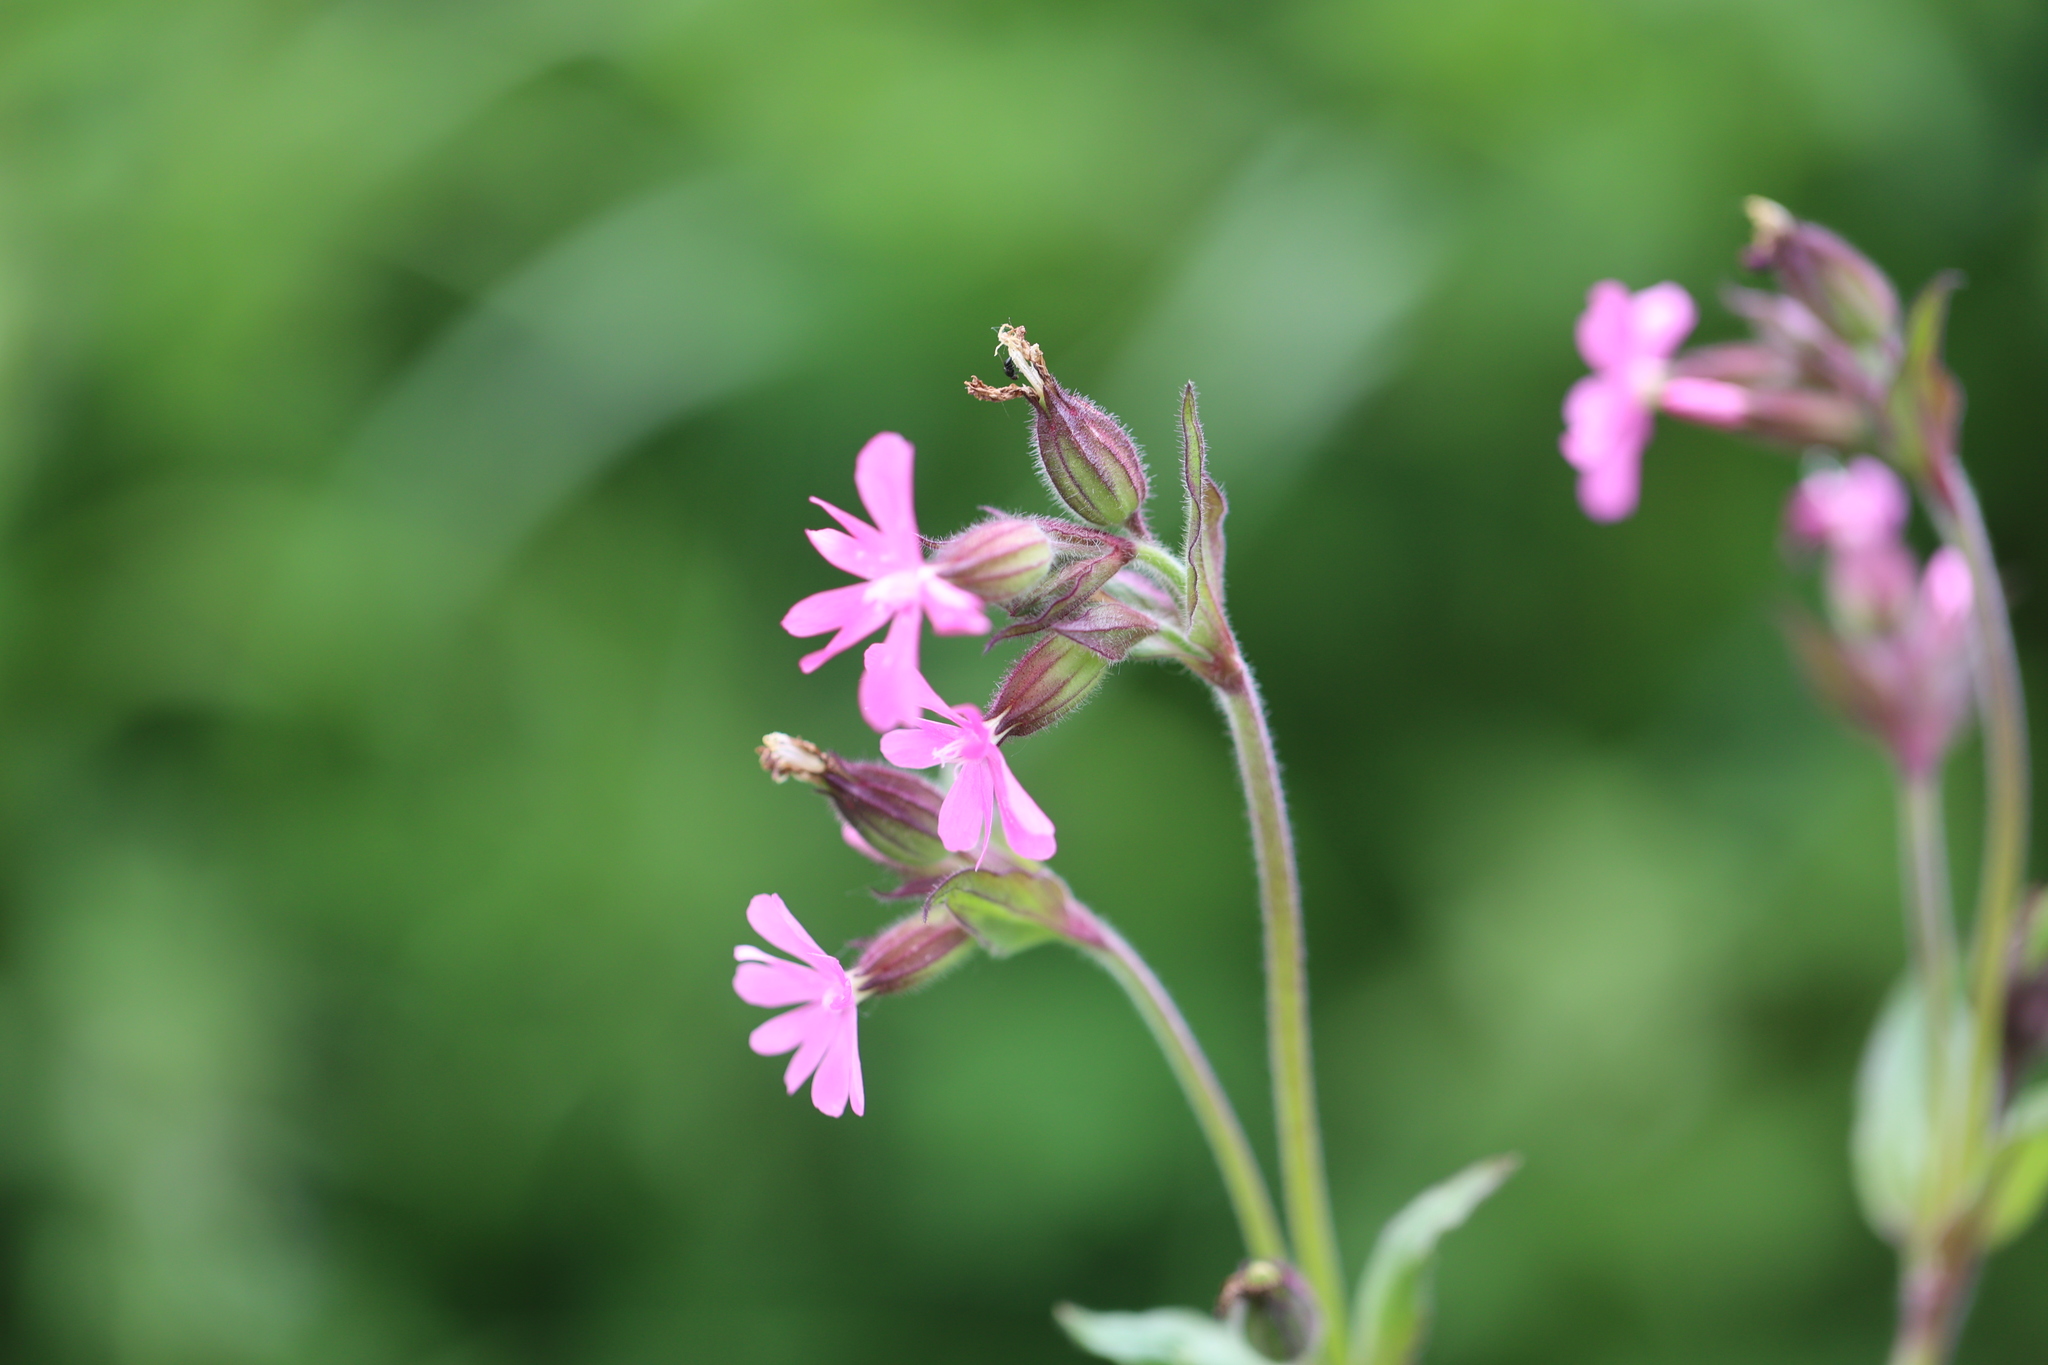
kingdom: Plantae
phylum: Tracheophyta
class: Magnoliopsida
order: Caryophyllales
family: Caryophyllaceae
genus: Silene
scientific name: Silene dioica
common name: Red campion
